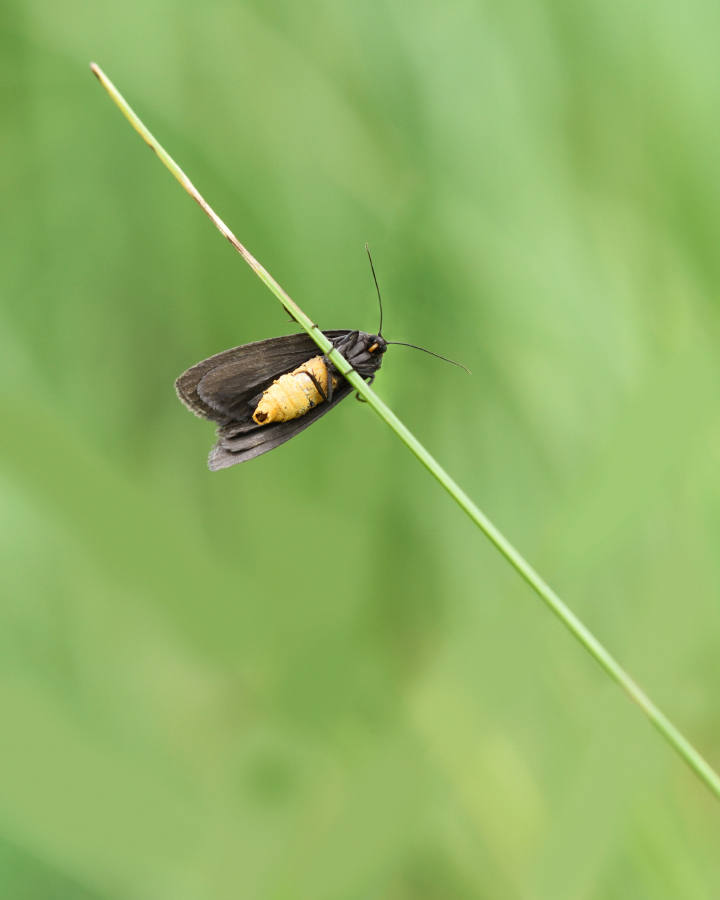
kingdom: Animalia
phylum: Arthropoda
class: Insecta
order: Lepidoptera
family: Erebidae
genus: Atolmis
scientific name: Atolmis rubricollis
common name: Red-necked footman
